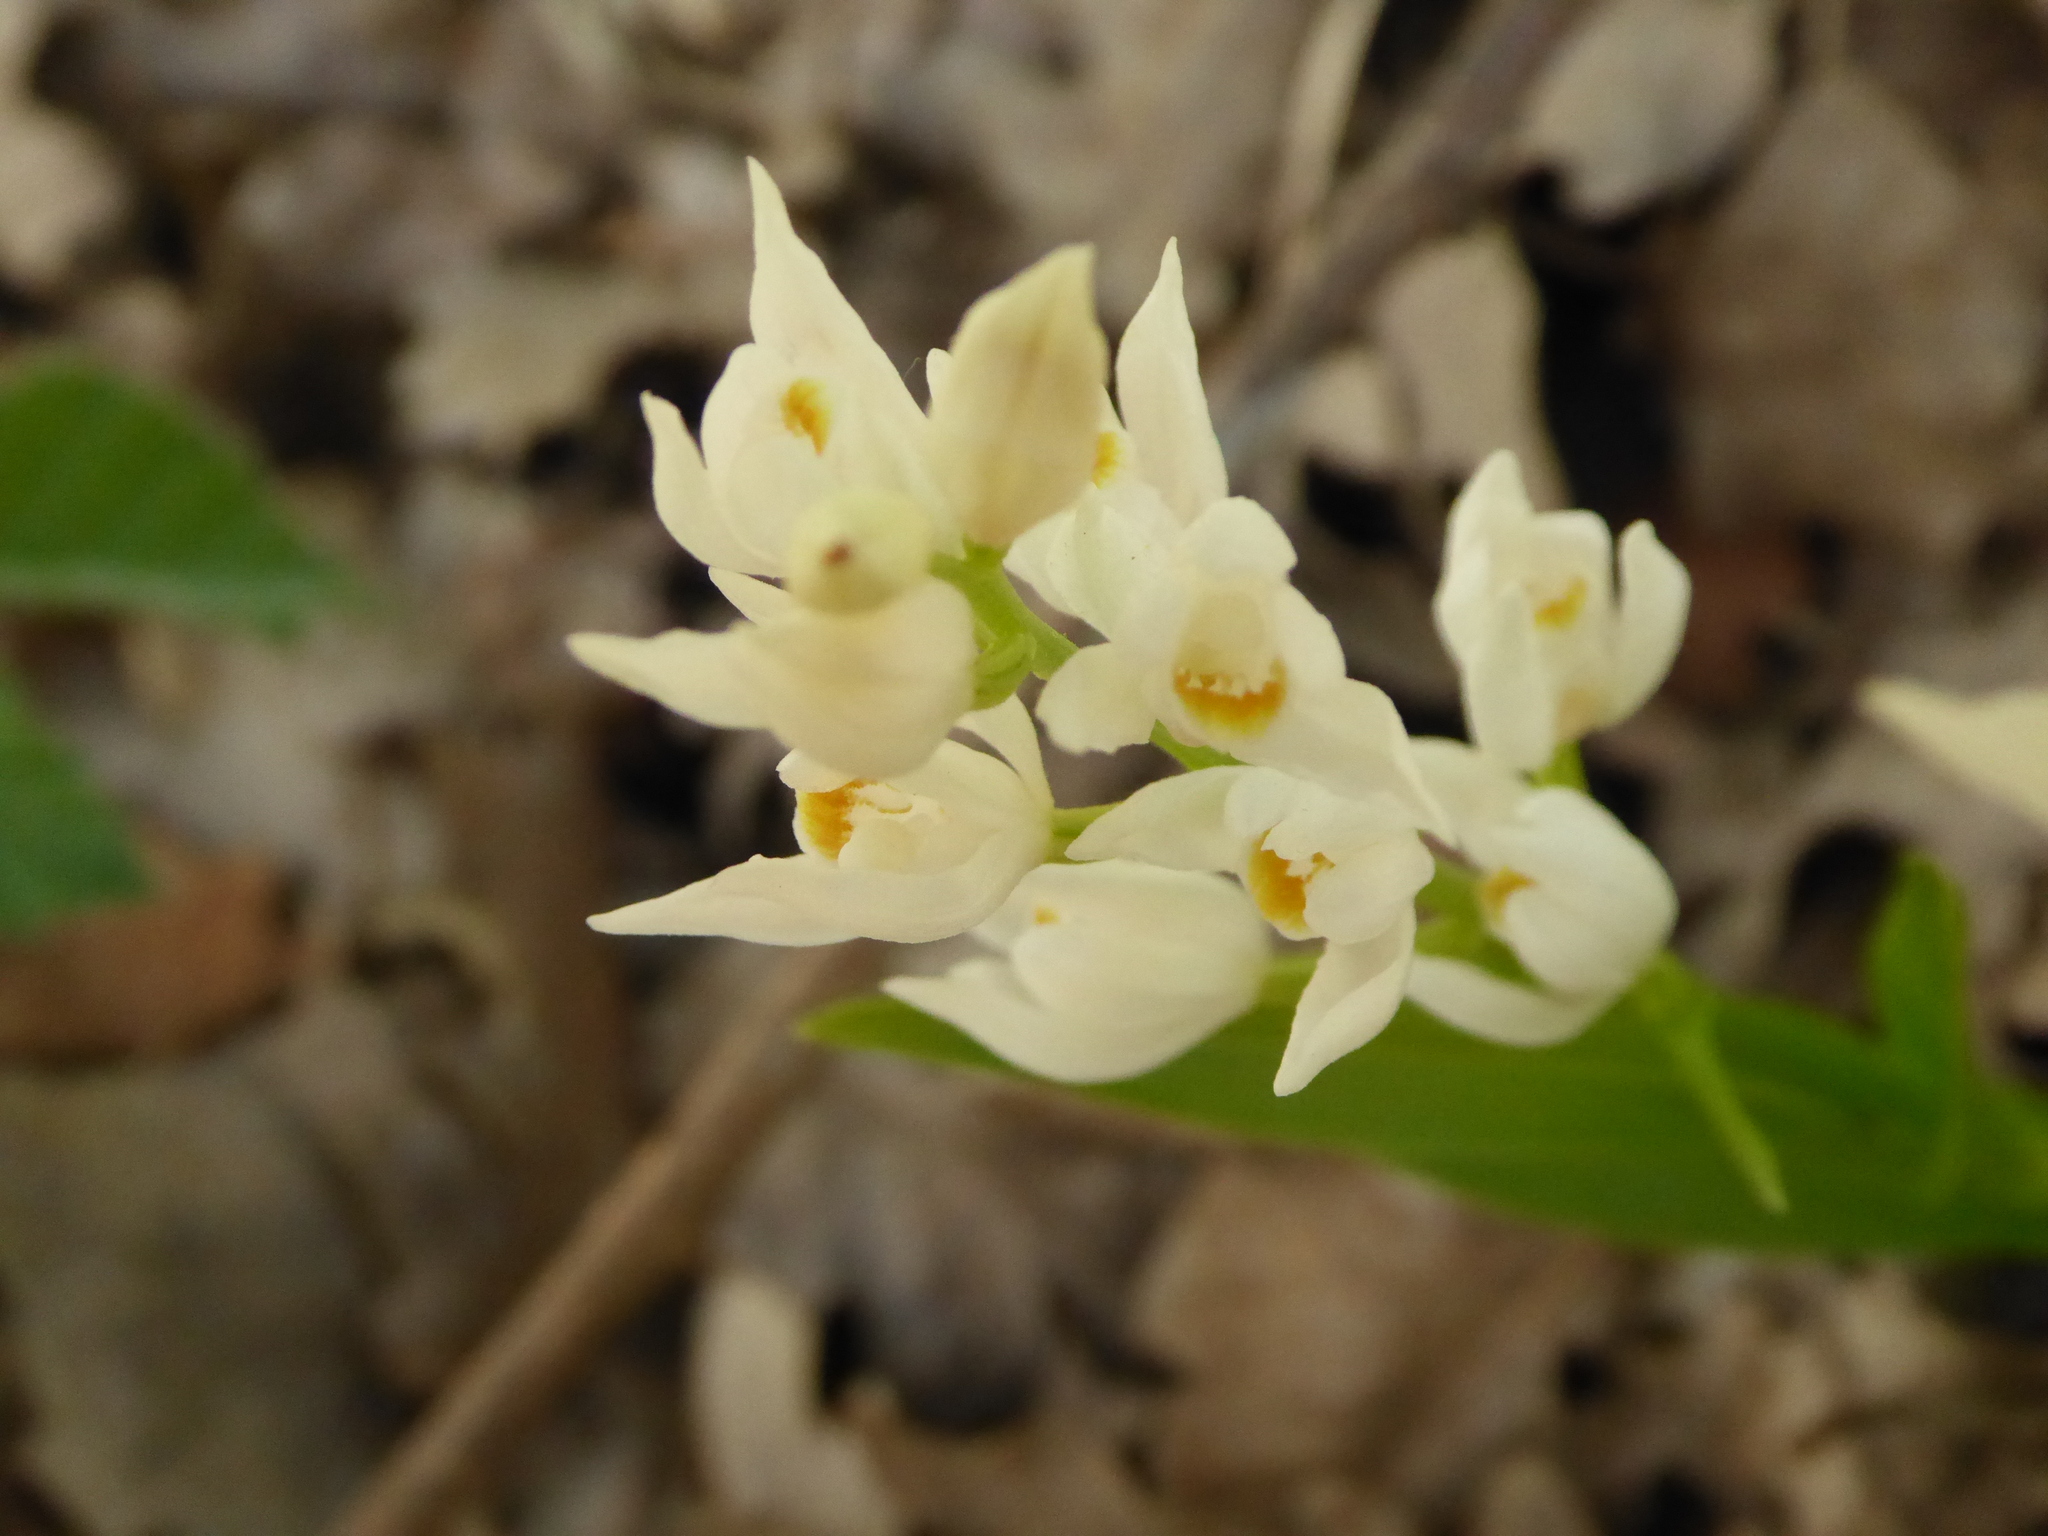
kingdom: Plantae
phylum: Tracheophyta
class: Liliopsida
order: Asparagales
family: Orchidaceae
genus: Cephalanthera
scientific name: Cephalanthera longifolia
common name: Narrow-leaved helleborine
